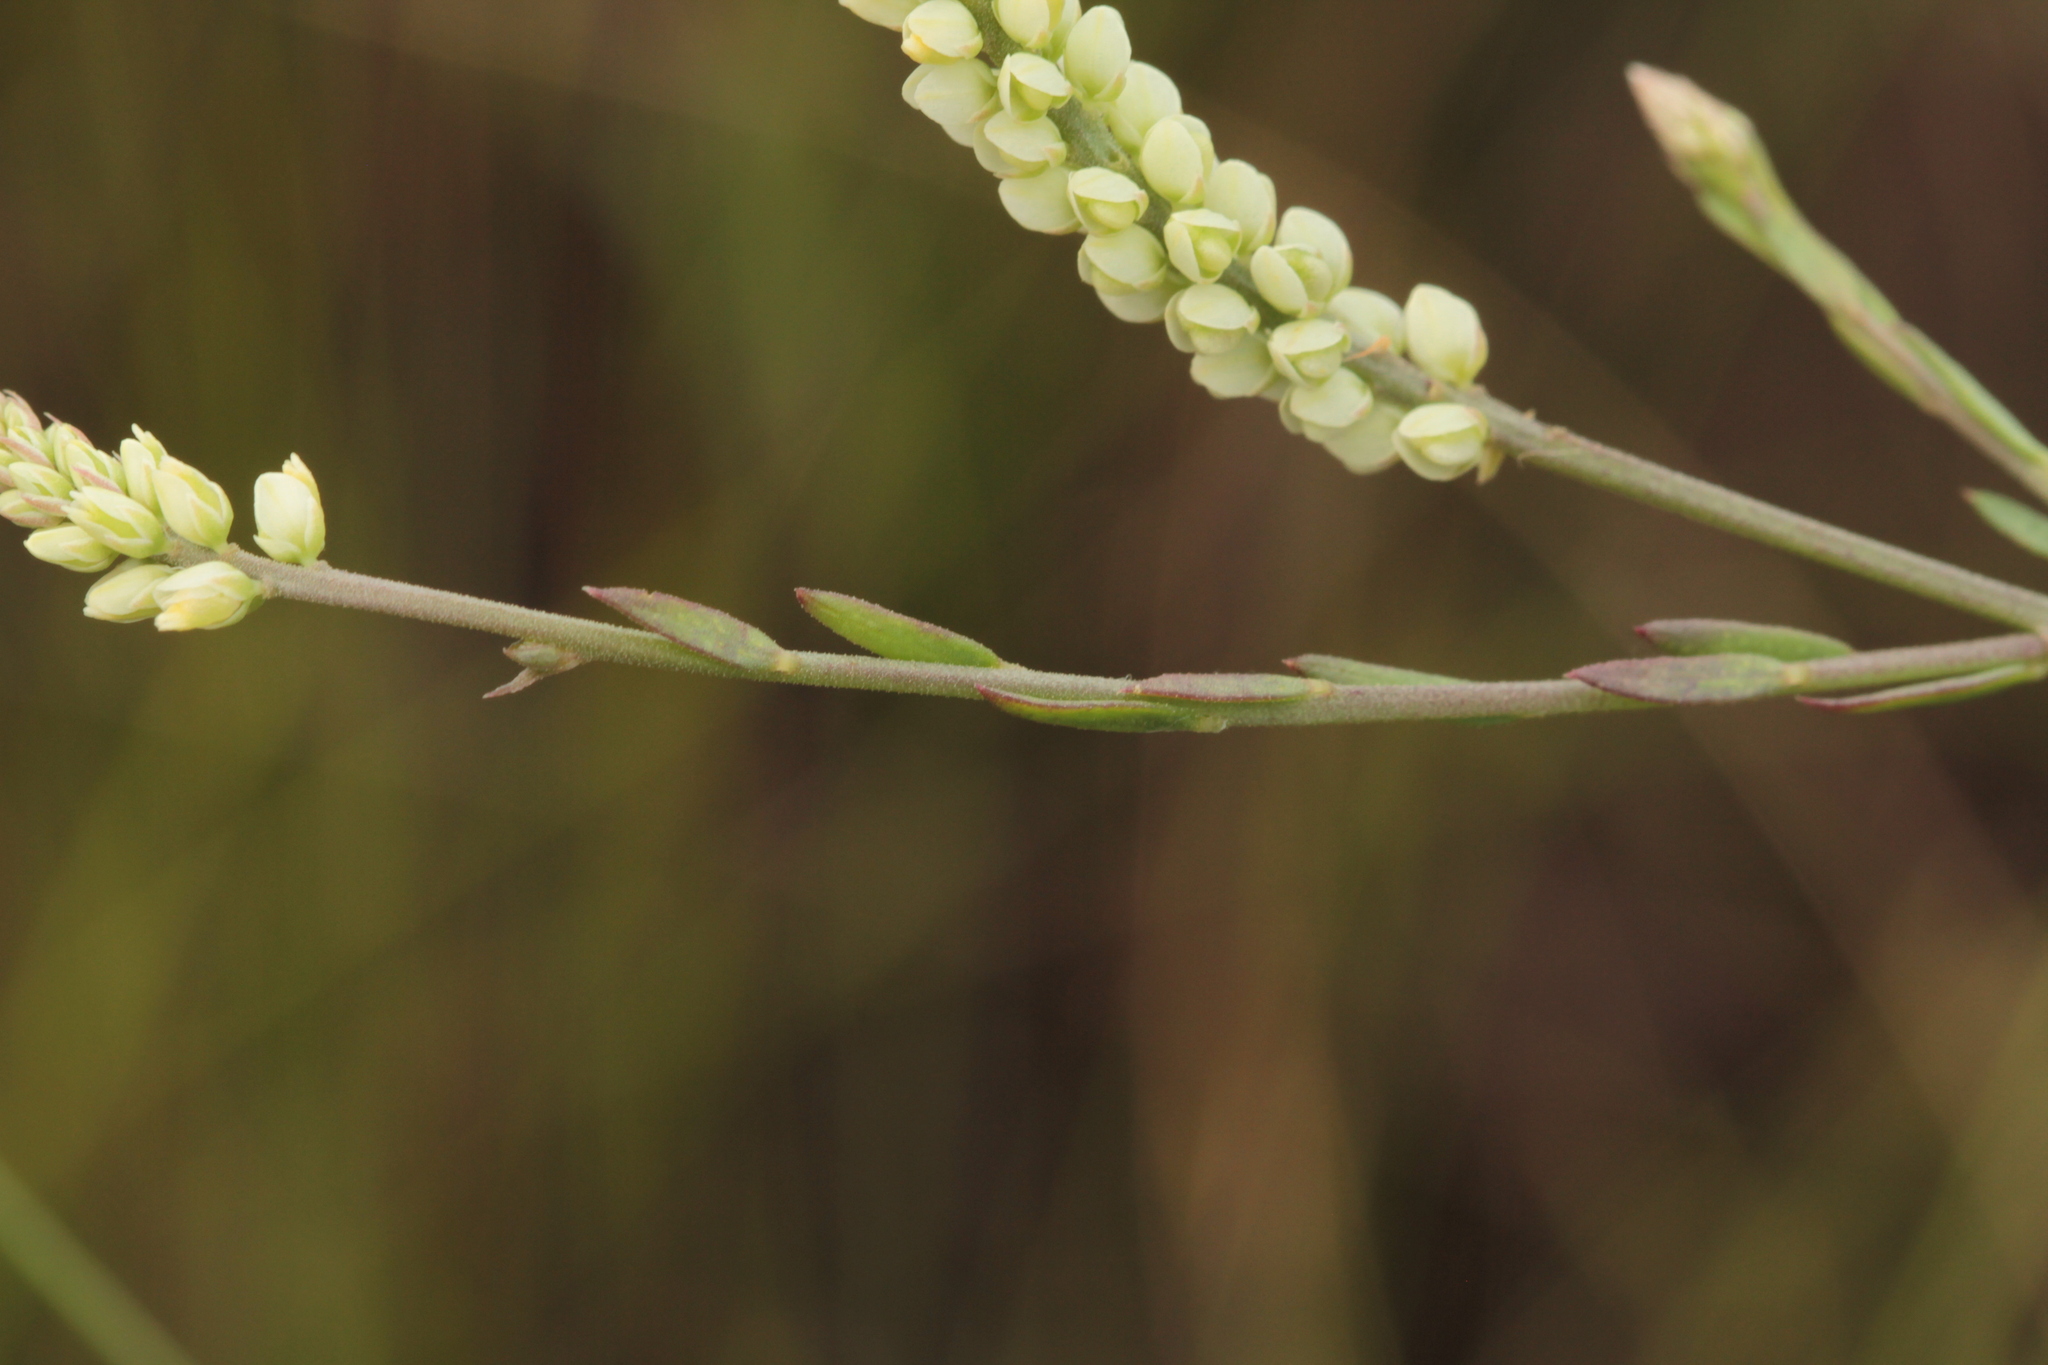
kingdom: Plantae
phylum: Tracheophyta
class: Magnoliopsida
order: Fabales
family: Polygalaceae
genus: Polygala
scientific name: Polygala blakeana
